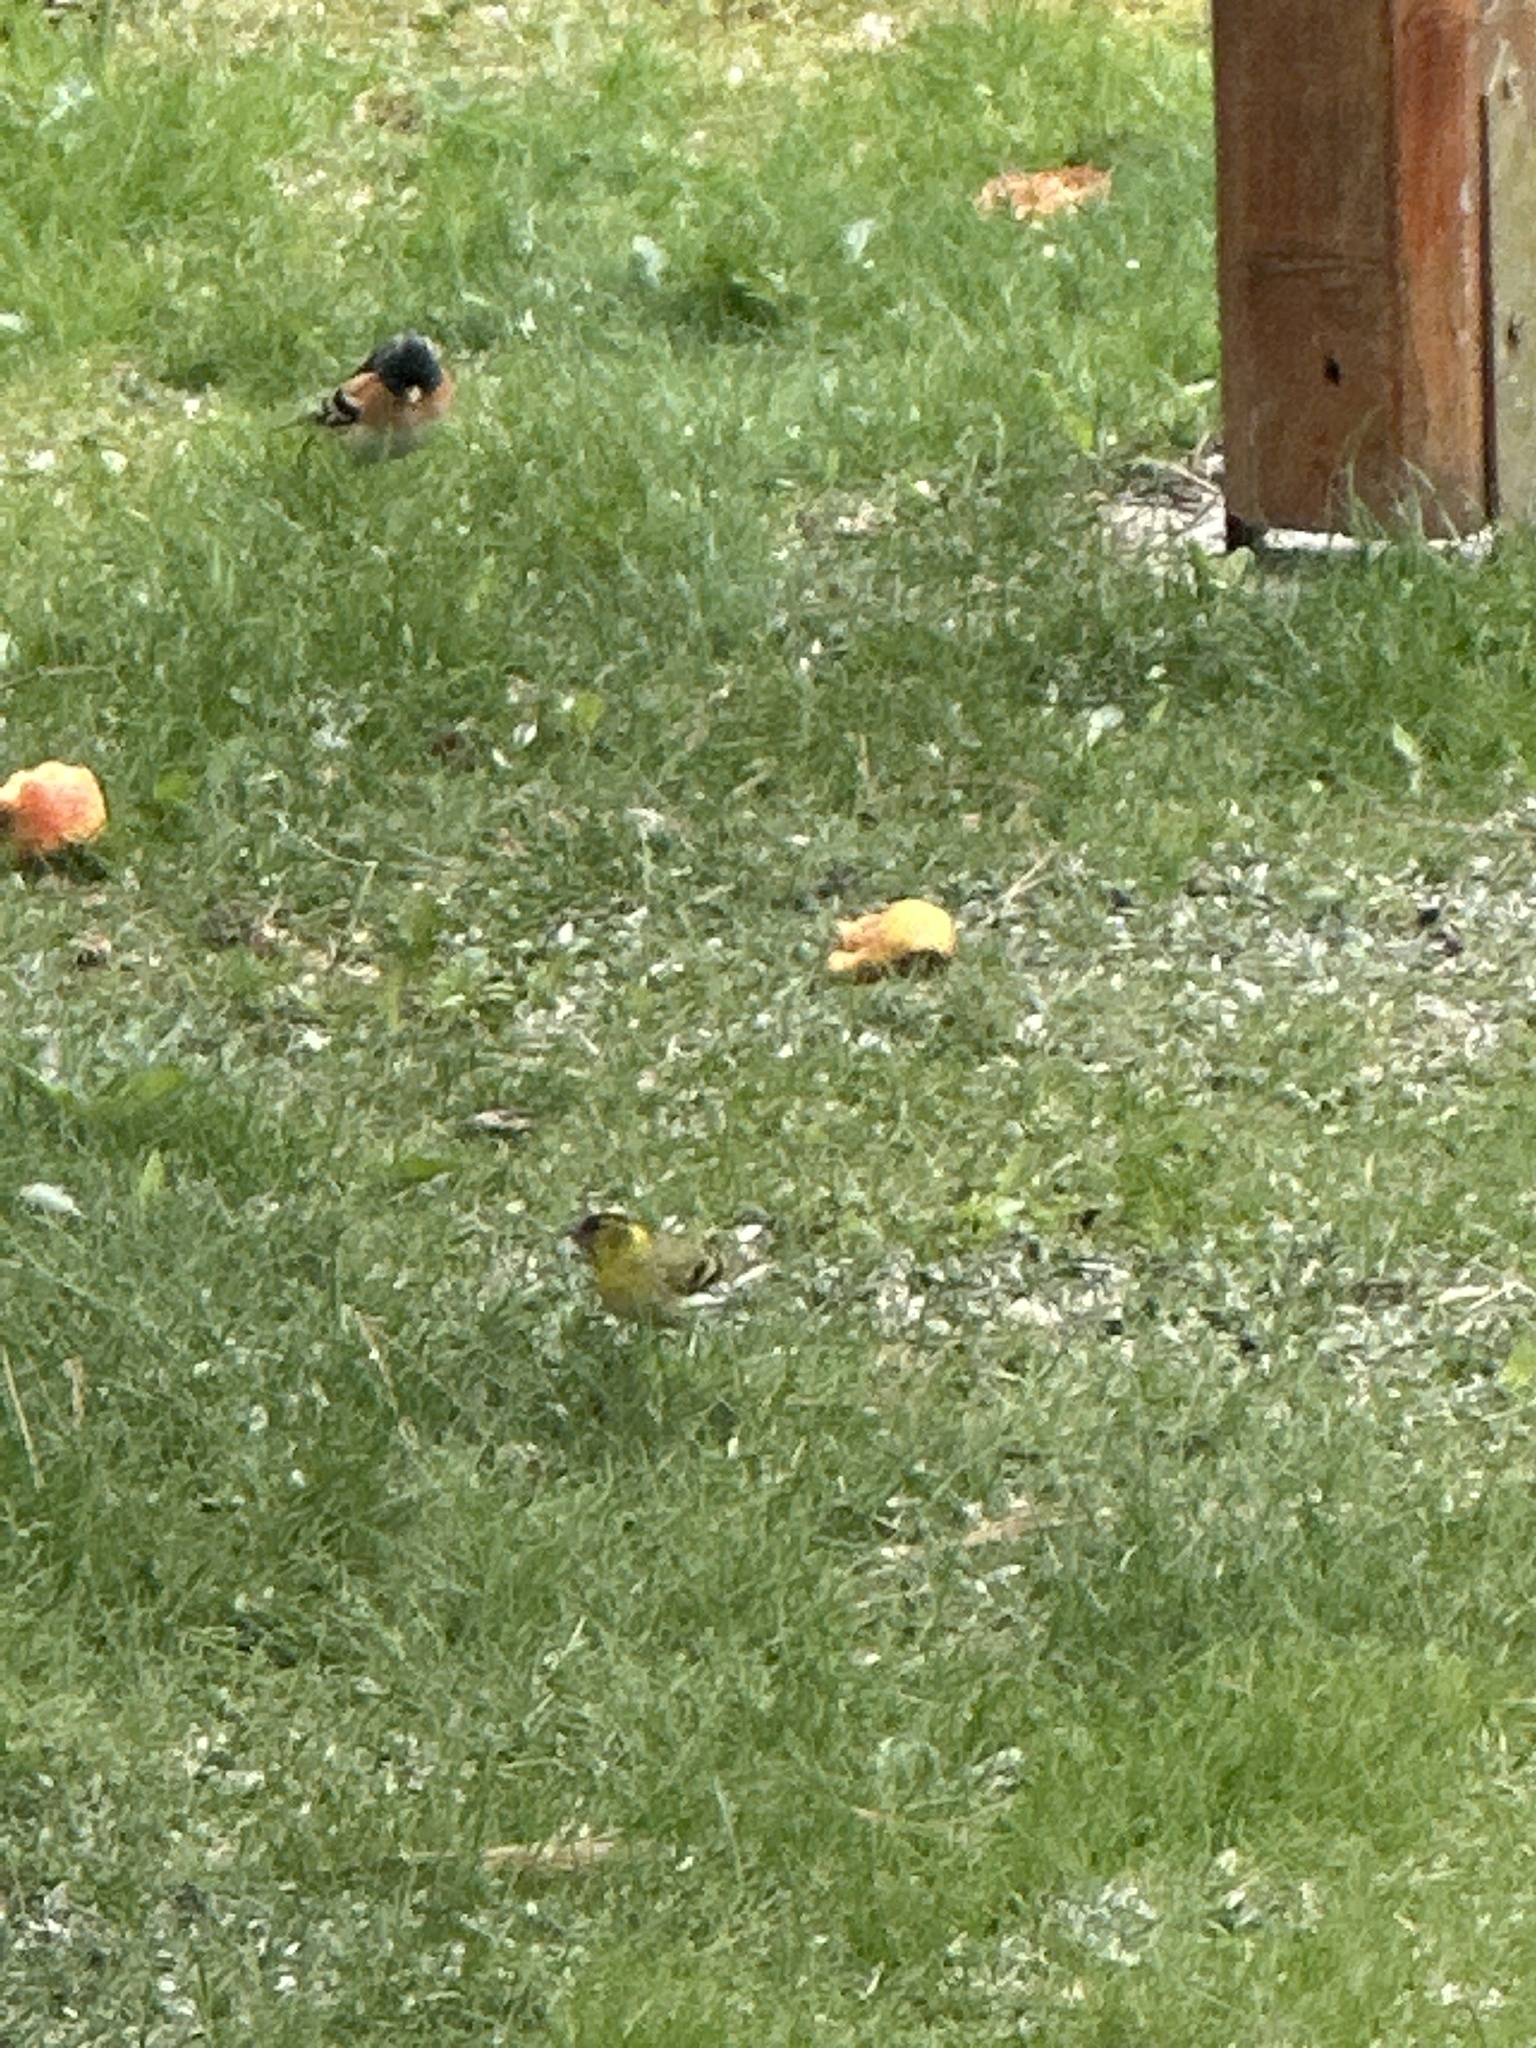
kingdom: Animalia
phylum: Chordata
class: Aves
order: Passeriformes
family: Fringillidae
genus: Spinus
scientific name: Spinus spinus
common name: Eurasian siskin
